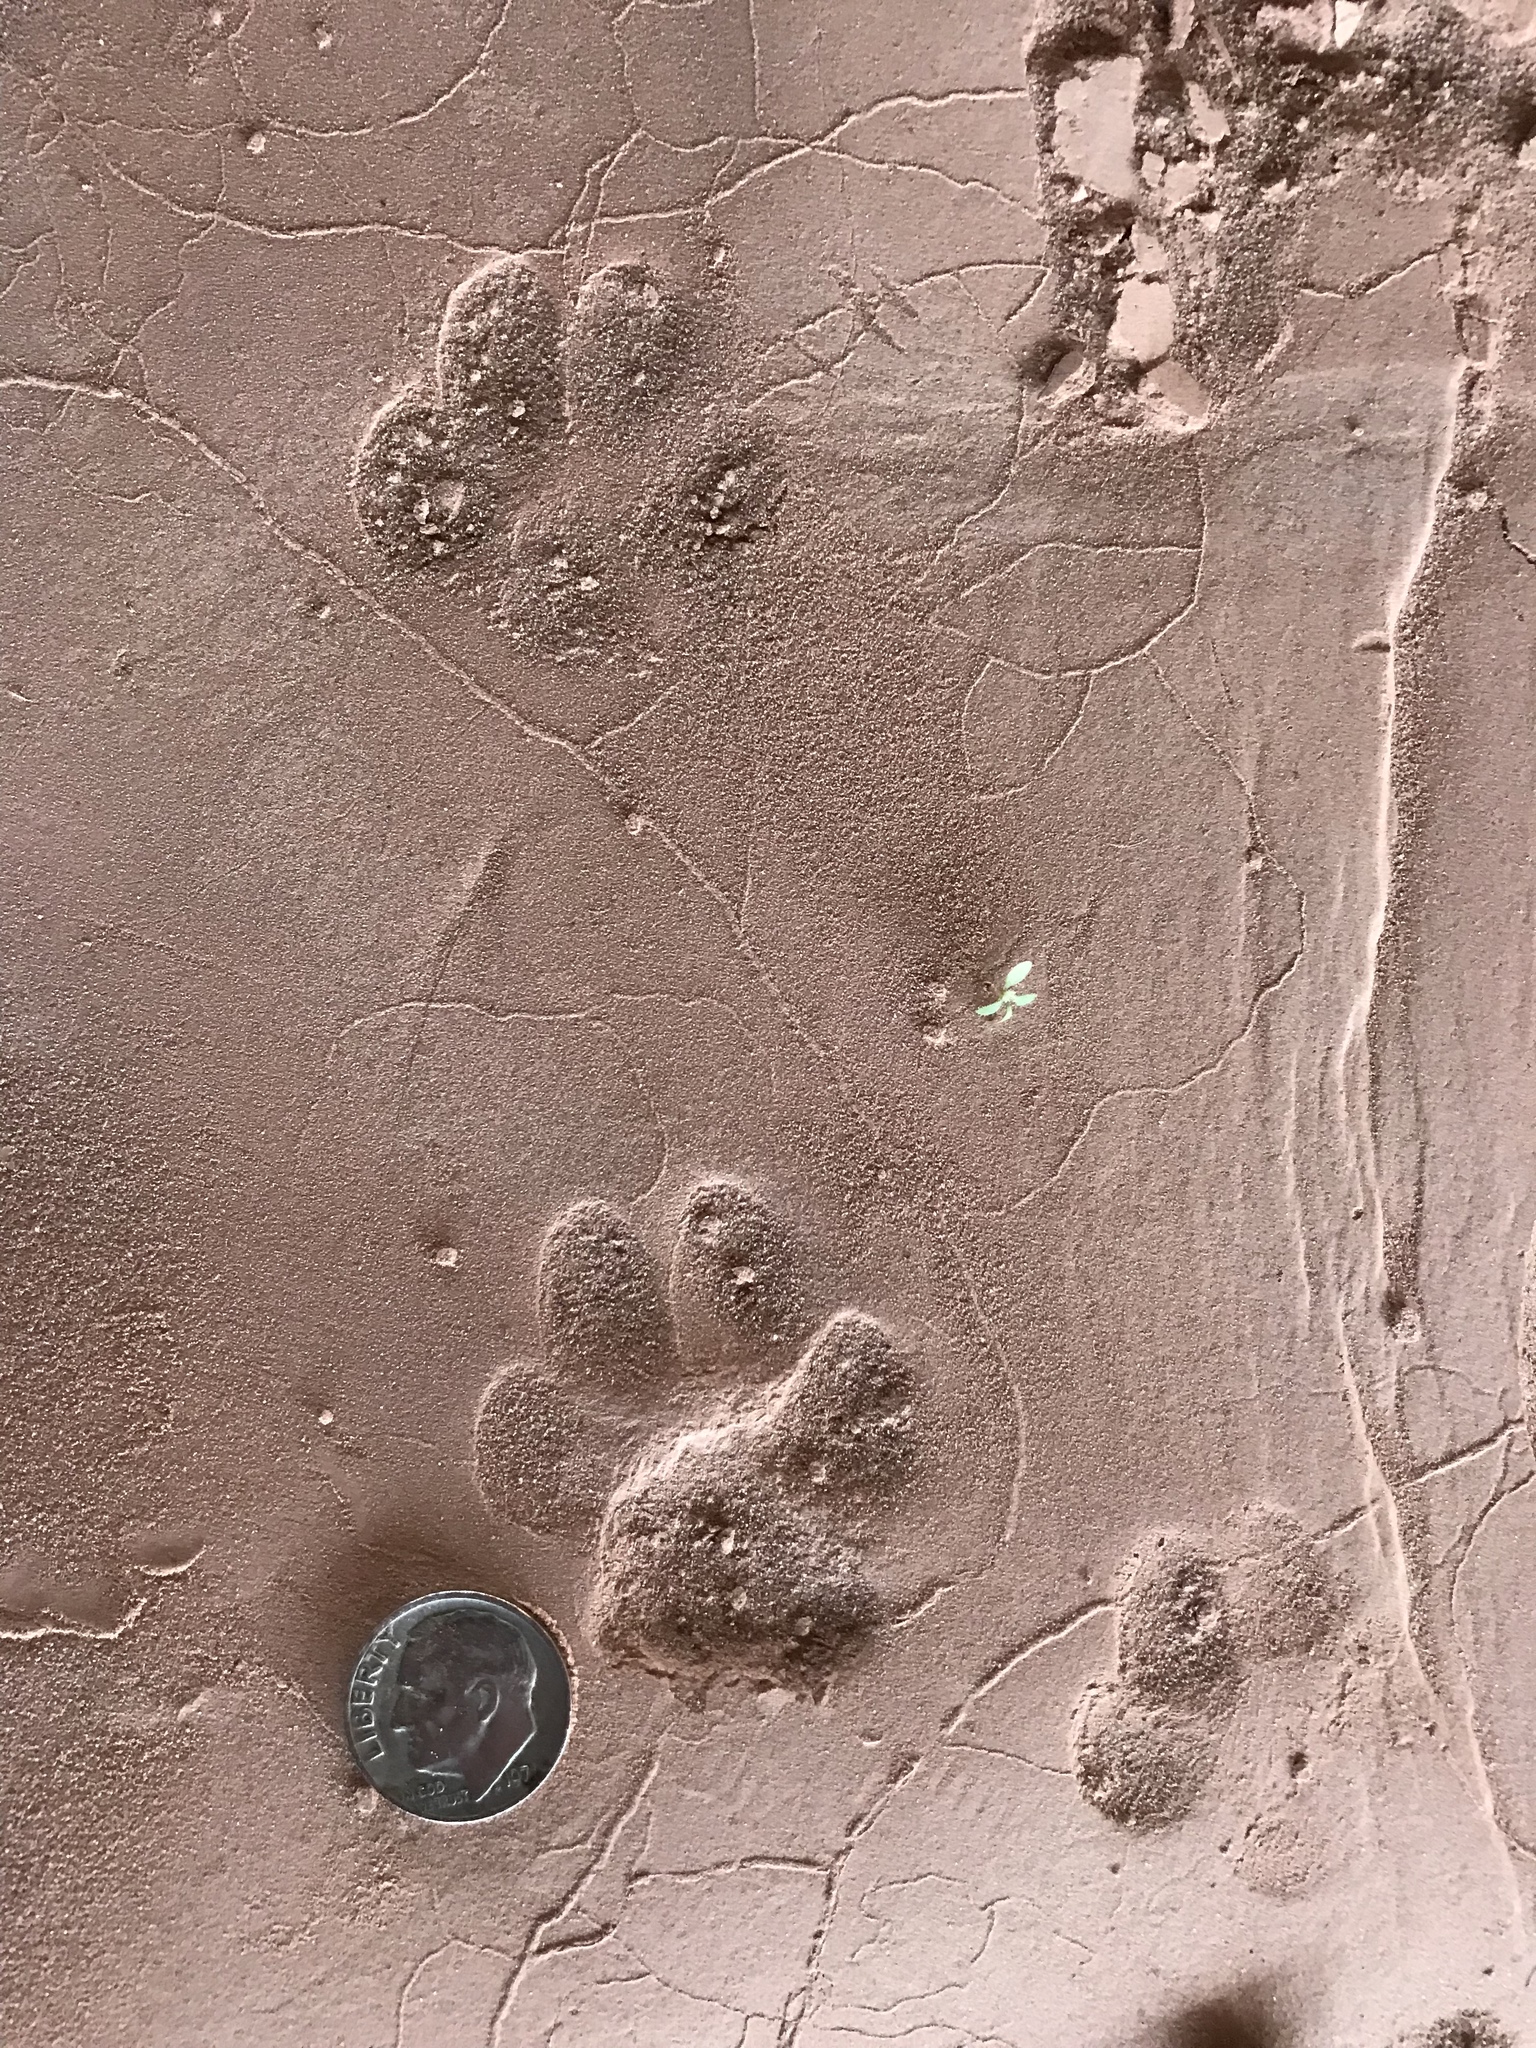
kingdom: Animalia
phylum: Chordata
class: Mammalia
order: Carnivora
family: Canidae
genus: Urocyon
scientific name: Urocyon cinereoargenteus
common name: Gray fox
